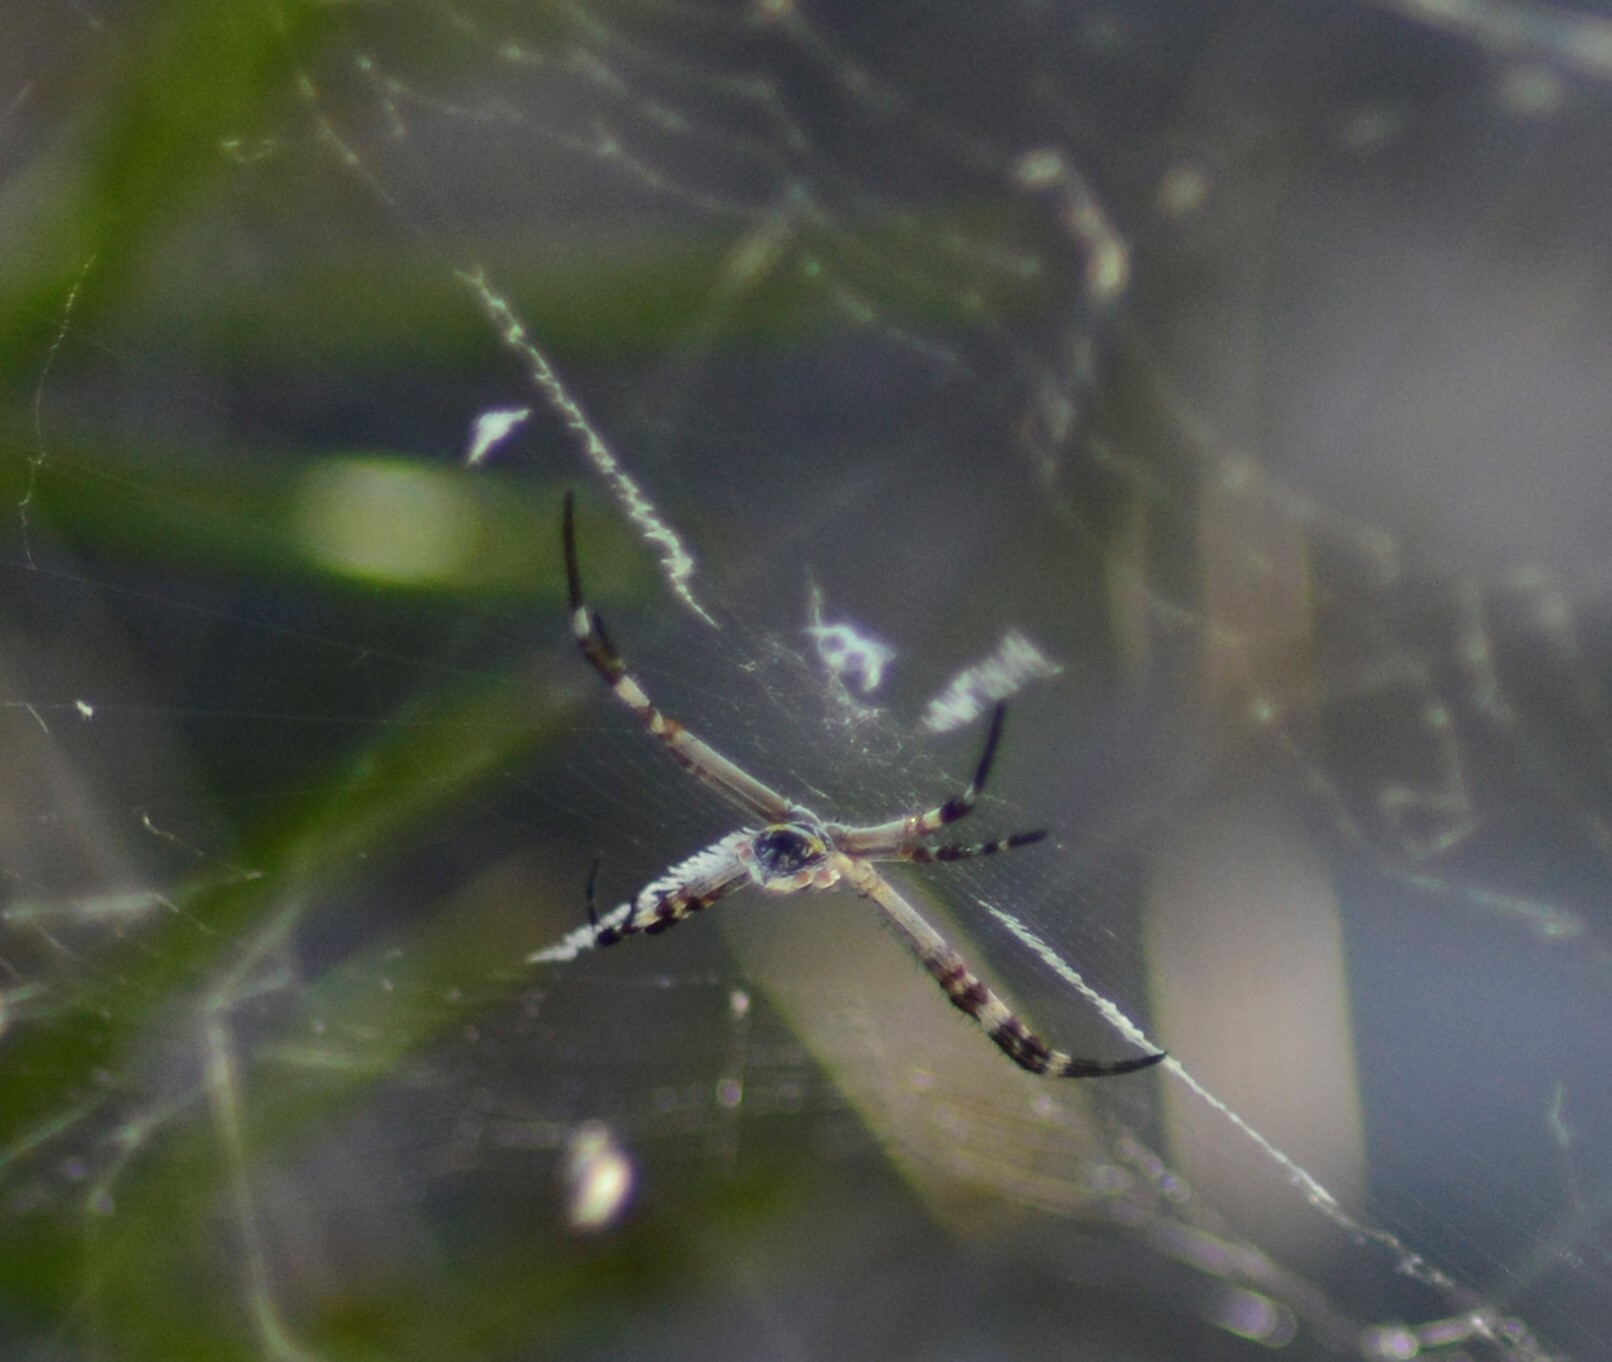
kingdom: Animalia
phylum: Arthropoda
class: Arachnida
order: Araneae
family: Araneidae
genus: Argiope
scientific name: Argiope argentata
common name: Orb weavers
